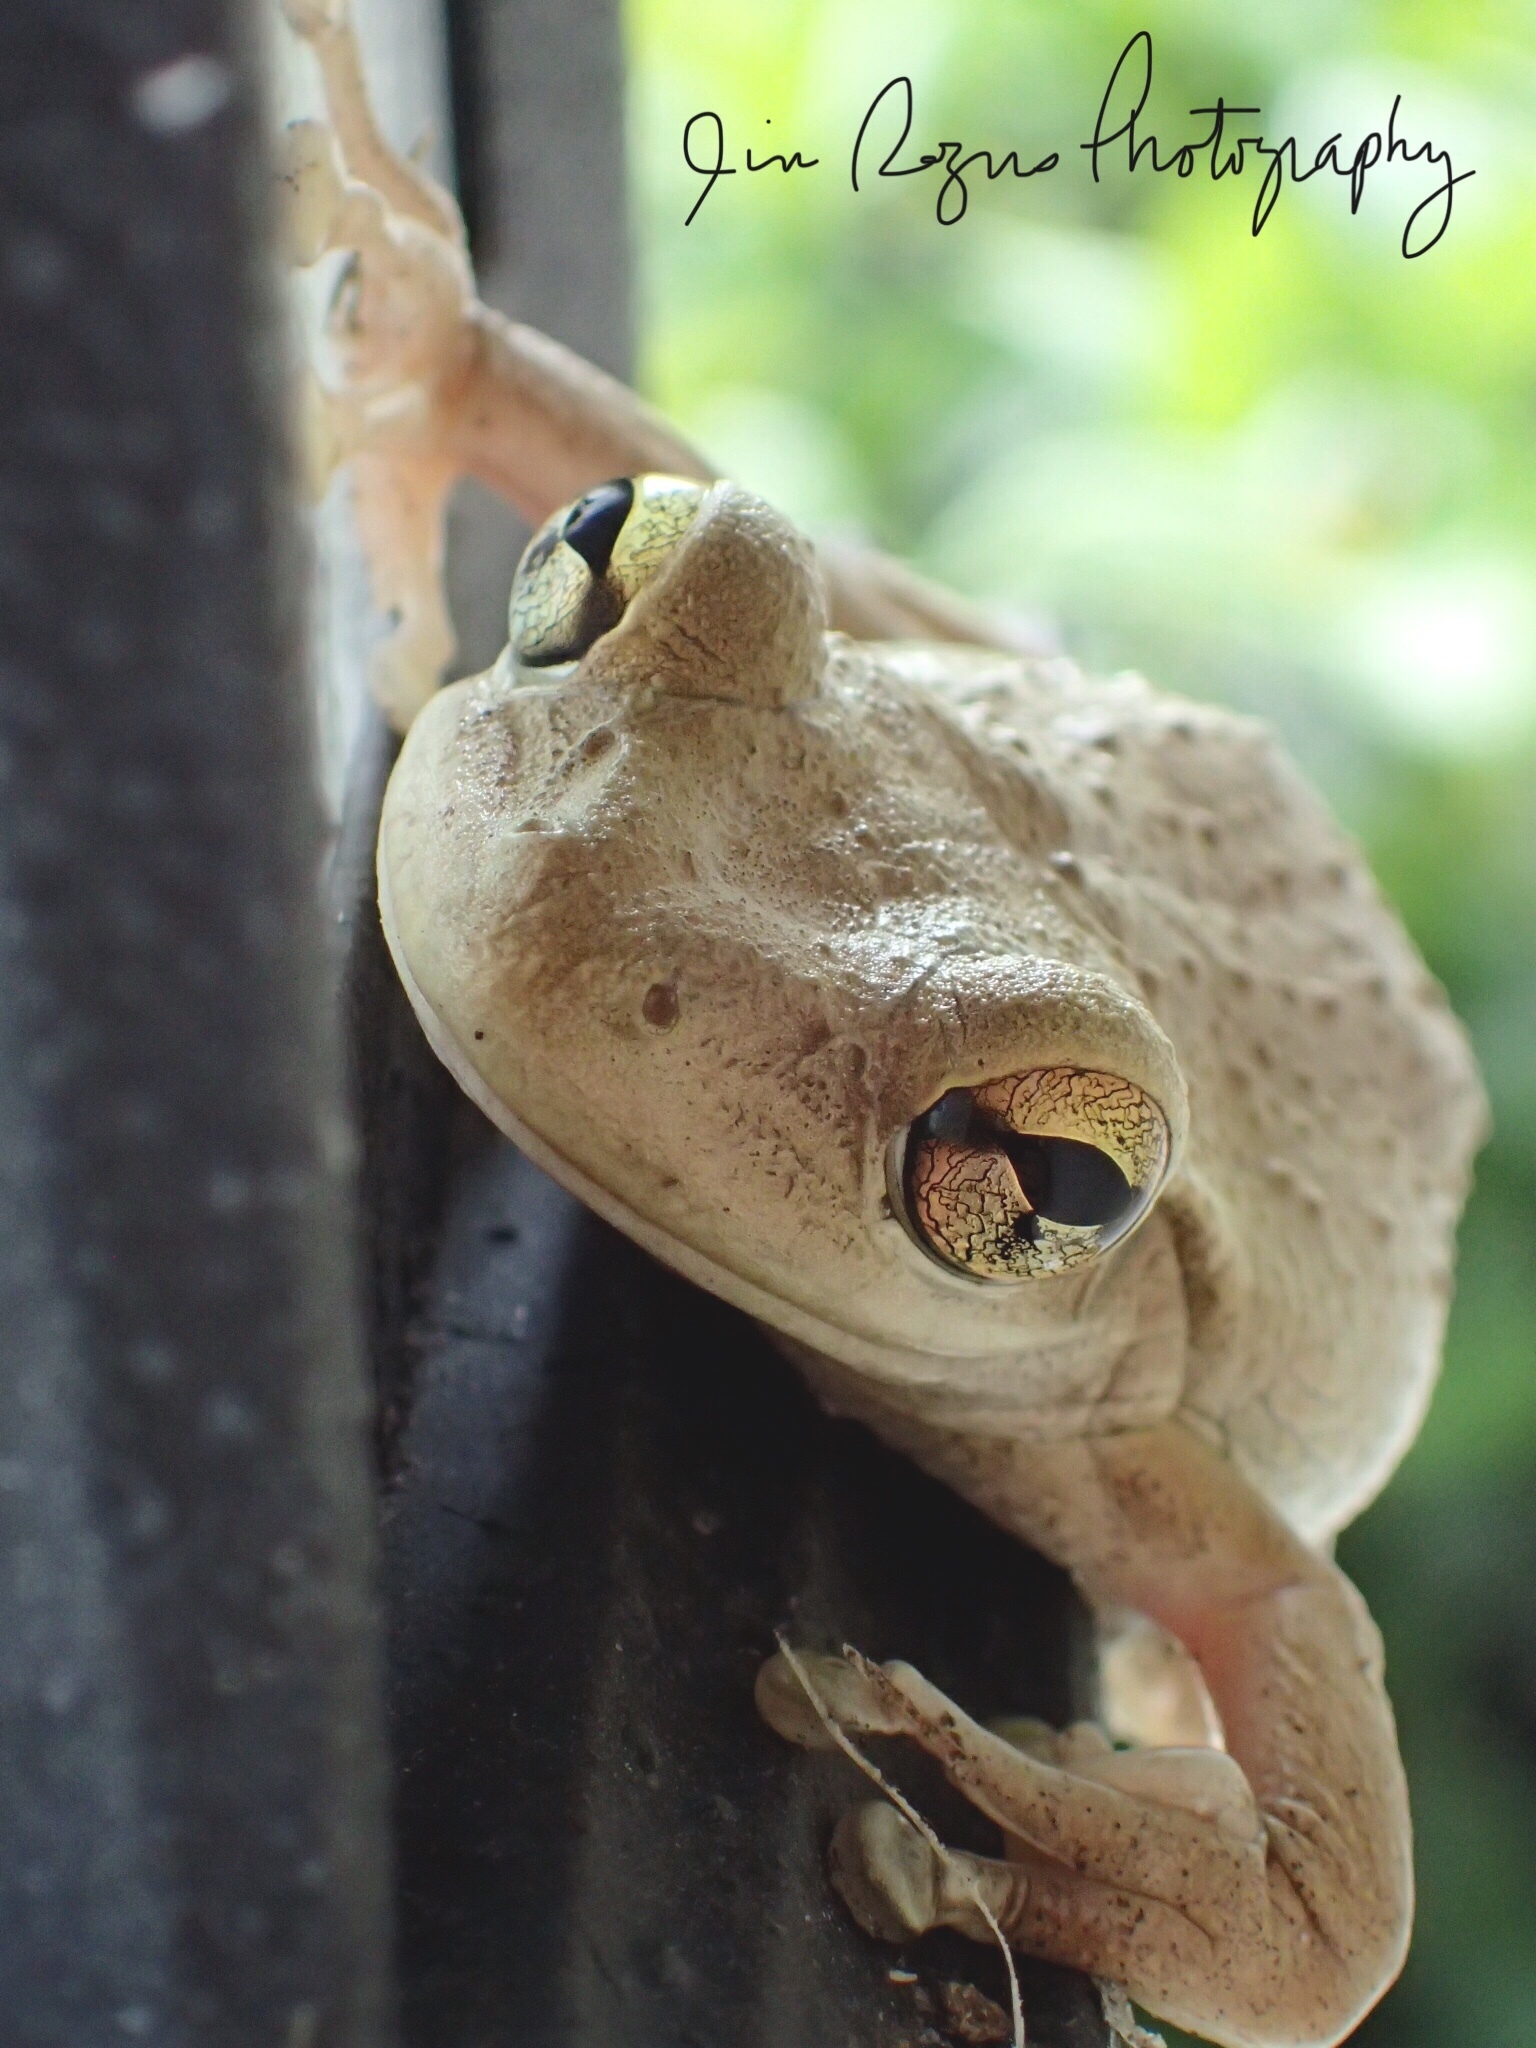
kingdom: Animalia
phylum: Chordata
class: Amphibia
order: Anura
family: Hylidae
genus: Osteopilus
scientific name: Osteopilus septentrionalis
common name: Cuban treefrog
